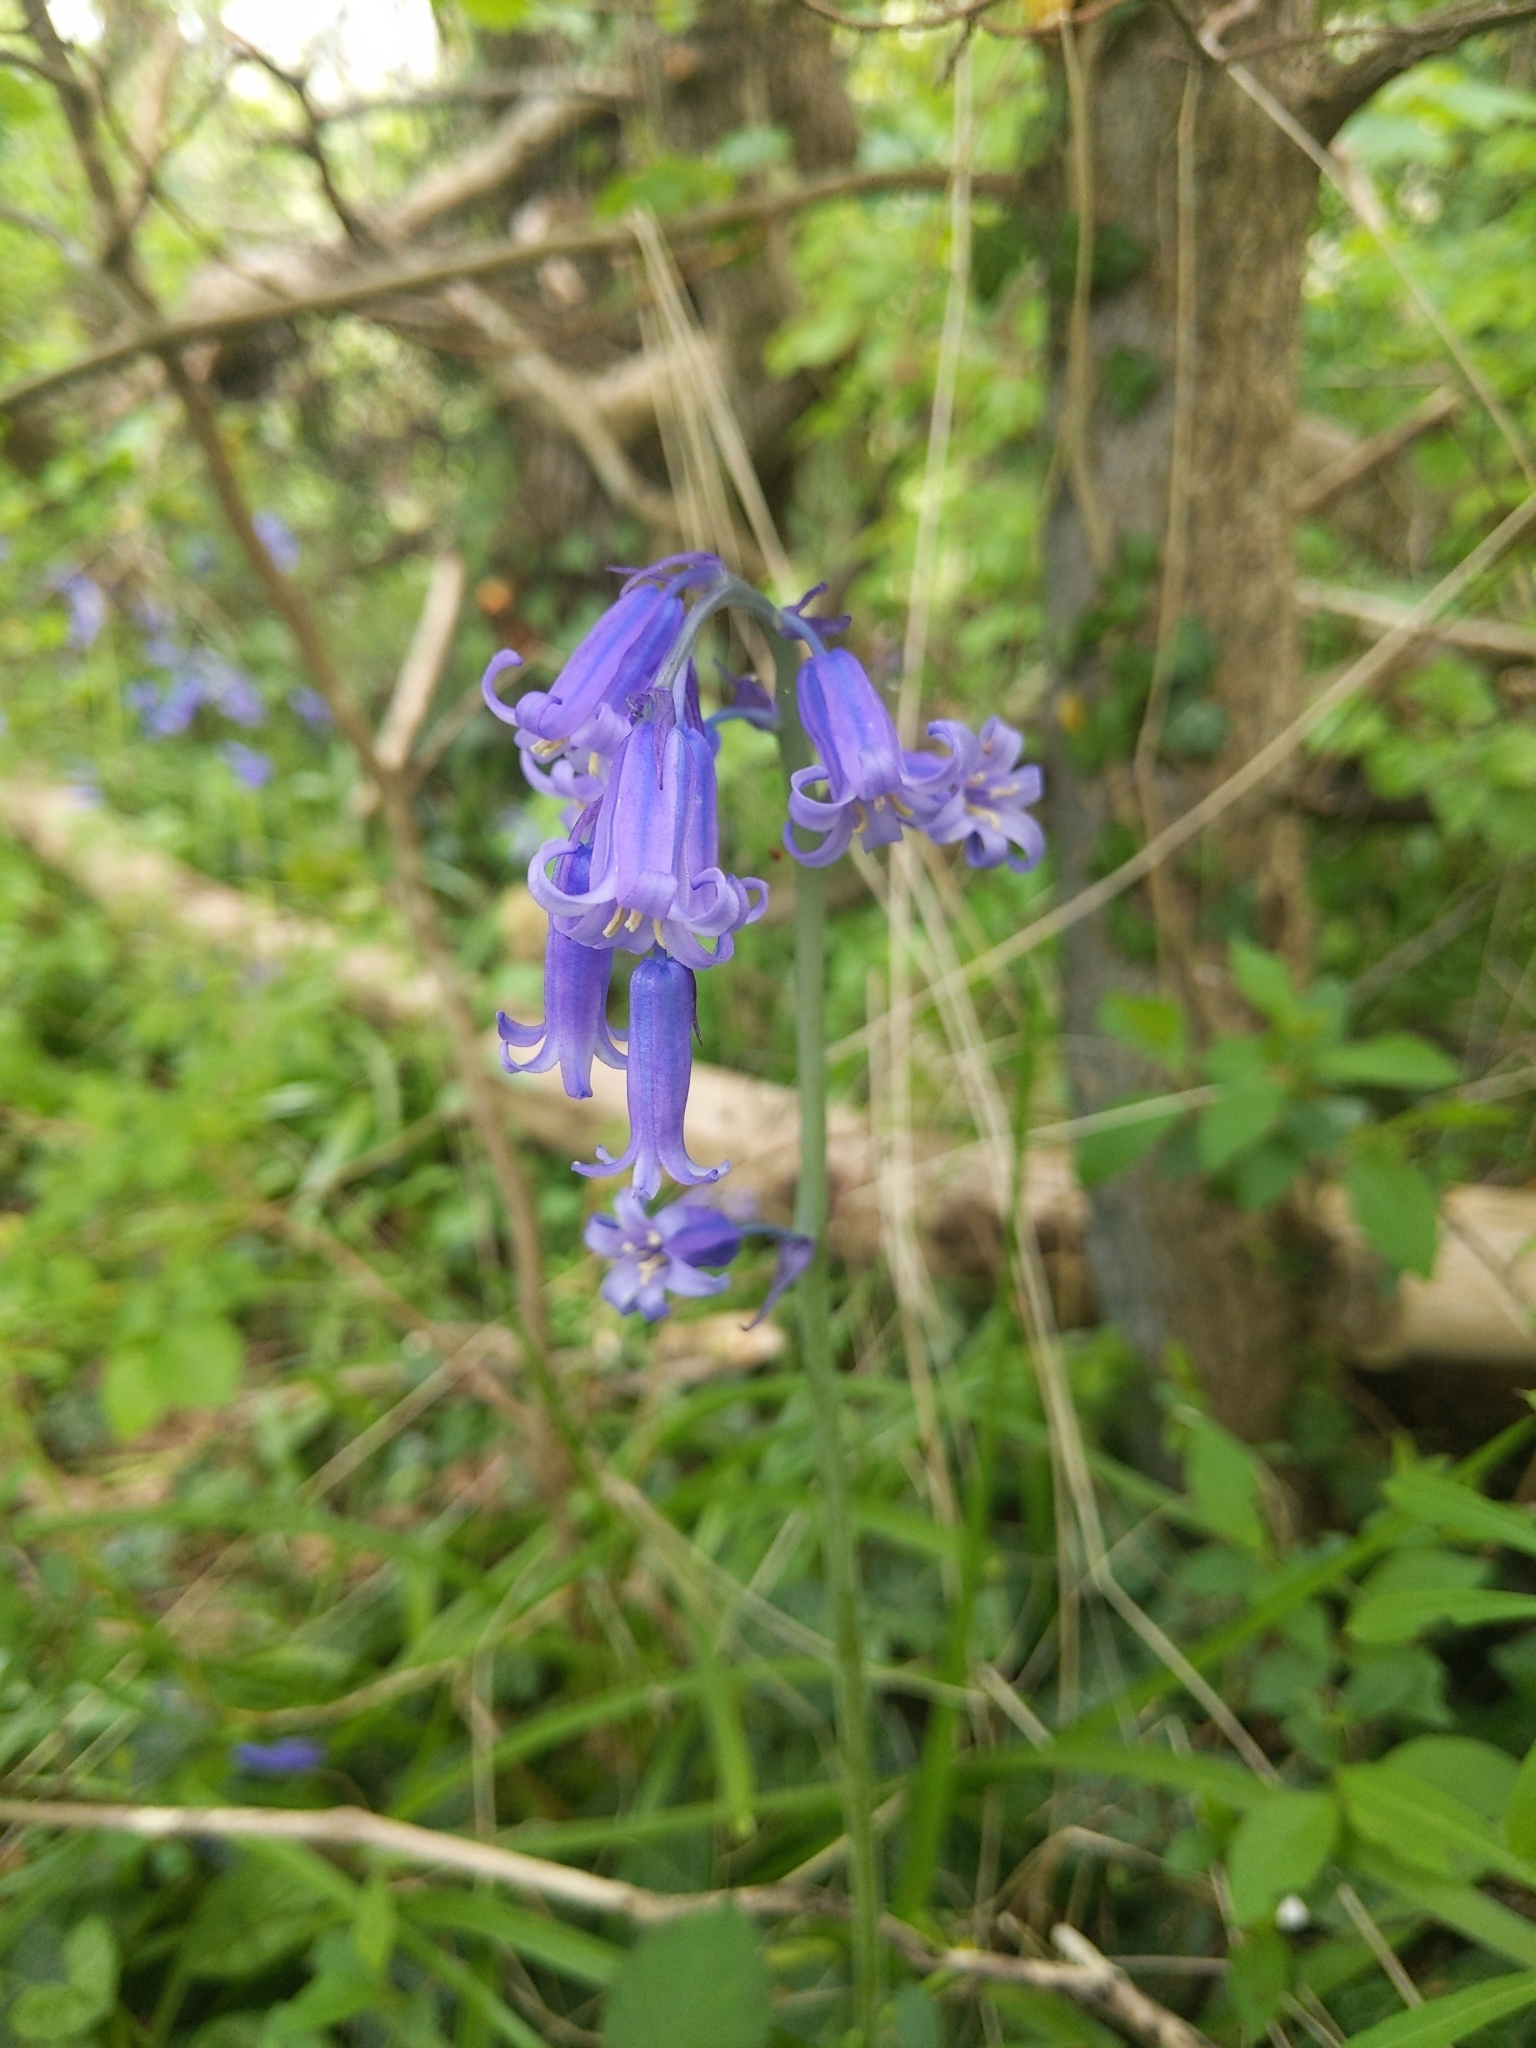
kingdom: Plantae
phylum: Tracheophyta
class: Liliopsida
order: Asparagales
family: Asparagaceae
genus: Hyacinthoides
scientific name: Hyacinthoides non-scripta
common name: Bluebell
